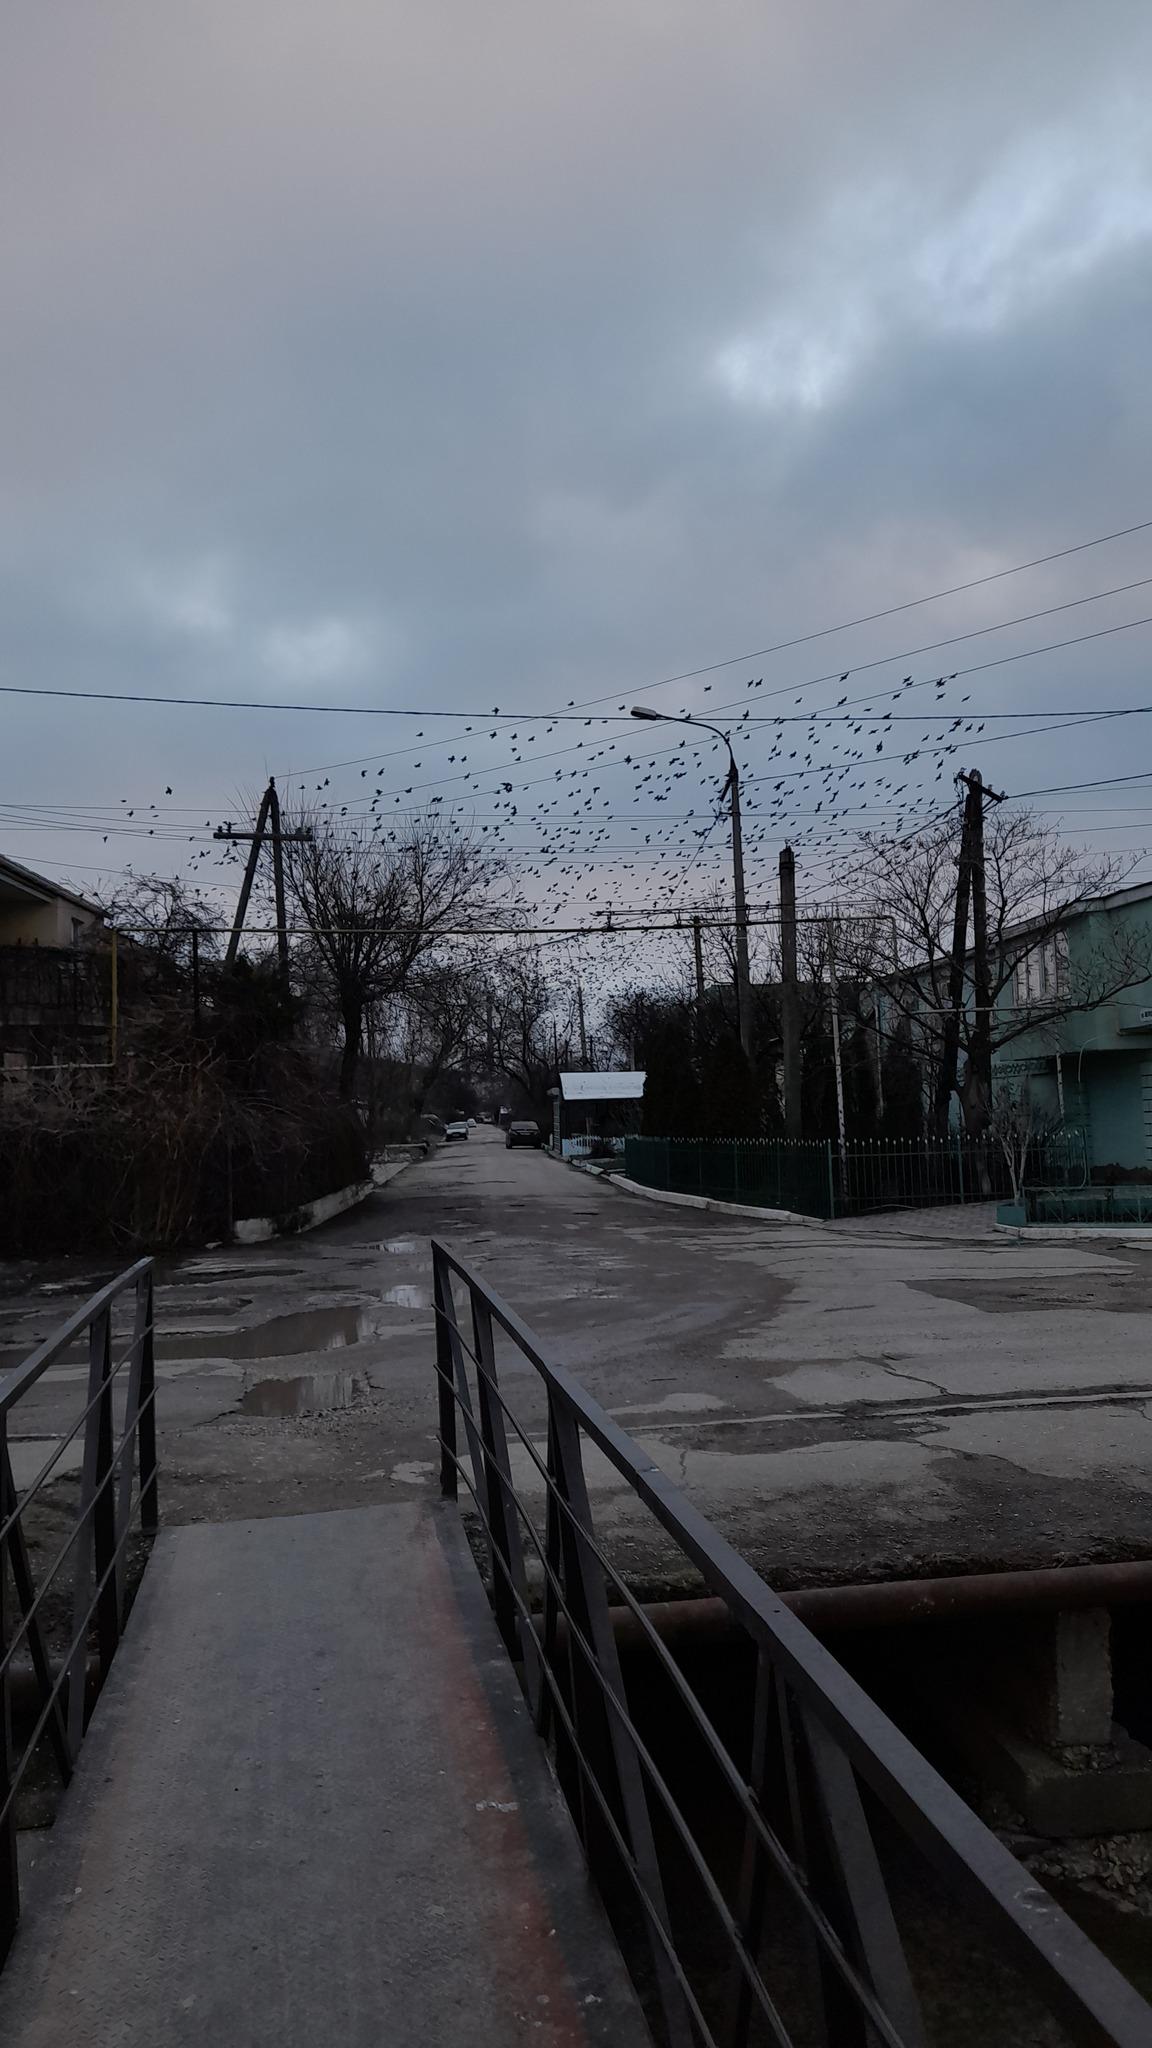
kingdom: Animalia
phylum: Chordata
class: Aves
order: Passeriformes
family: Sturnidae
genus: Sturnus
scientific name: Sturnus vulgaris
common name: Common starling
